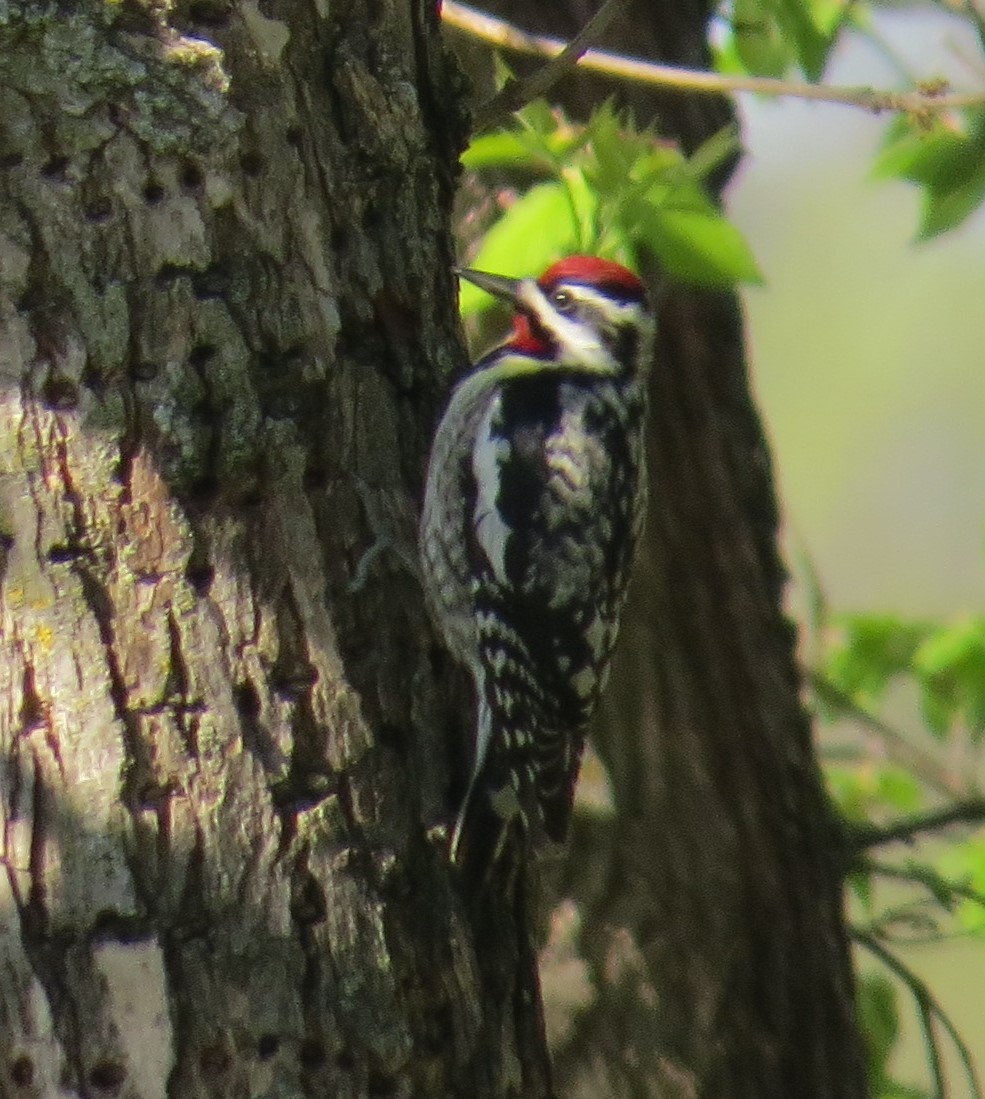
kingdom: Animalia
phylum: Chordata
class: Aves
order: Piciformes
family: Picidae
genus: Sphyrapicus
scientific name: Sphyrapicus varius
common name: Yellow-bellied sapsucker
